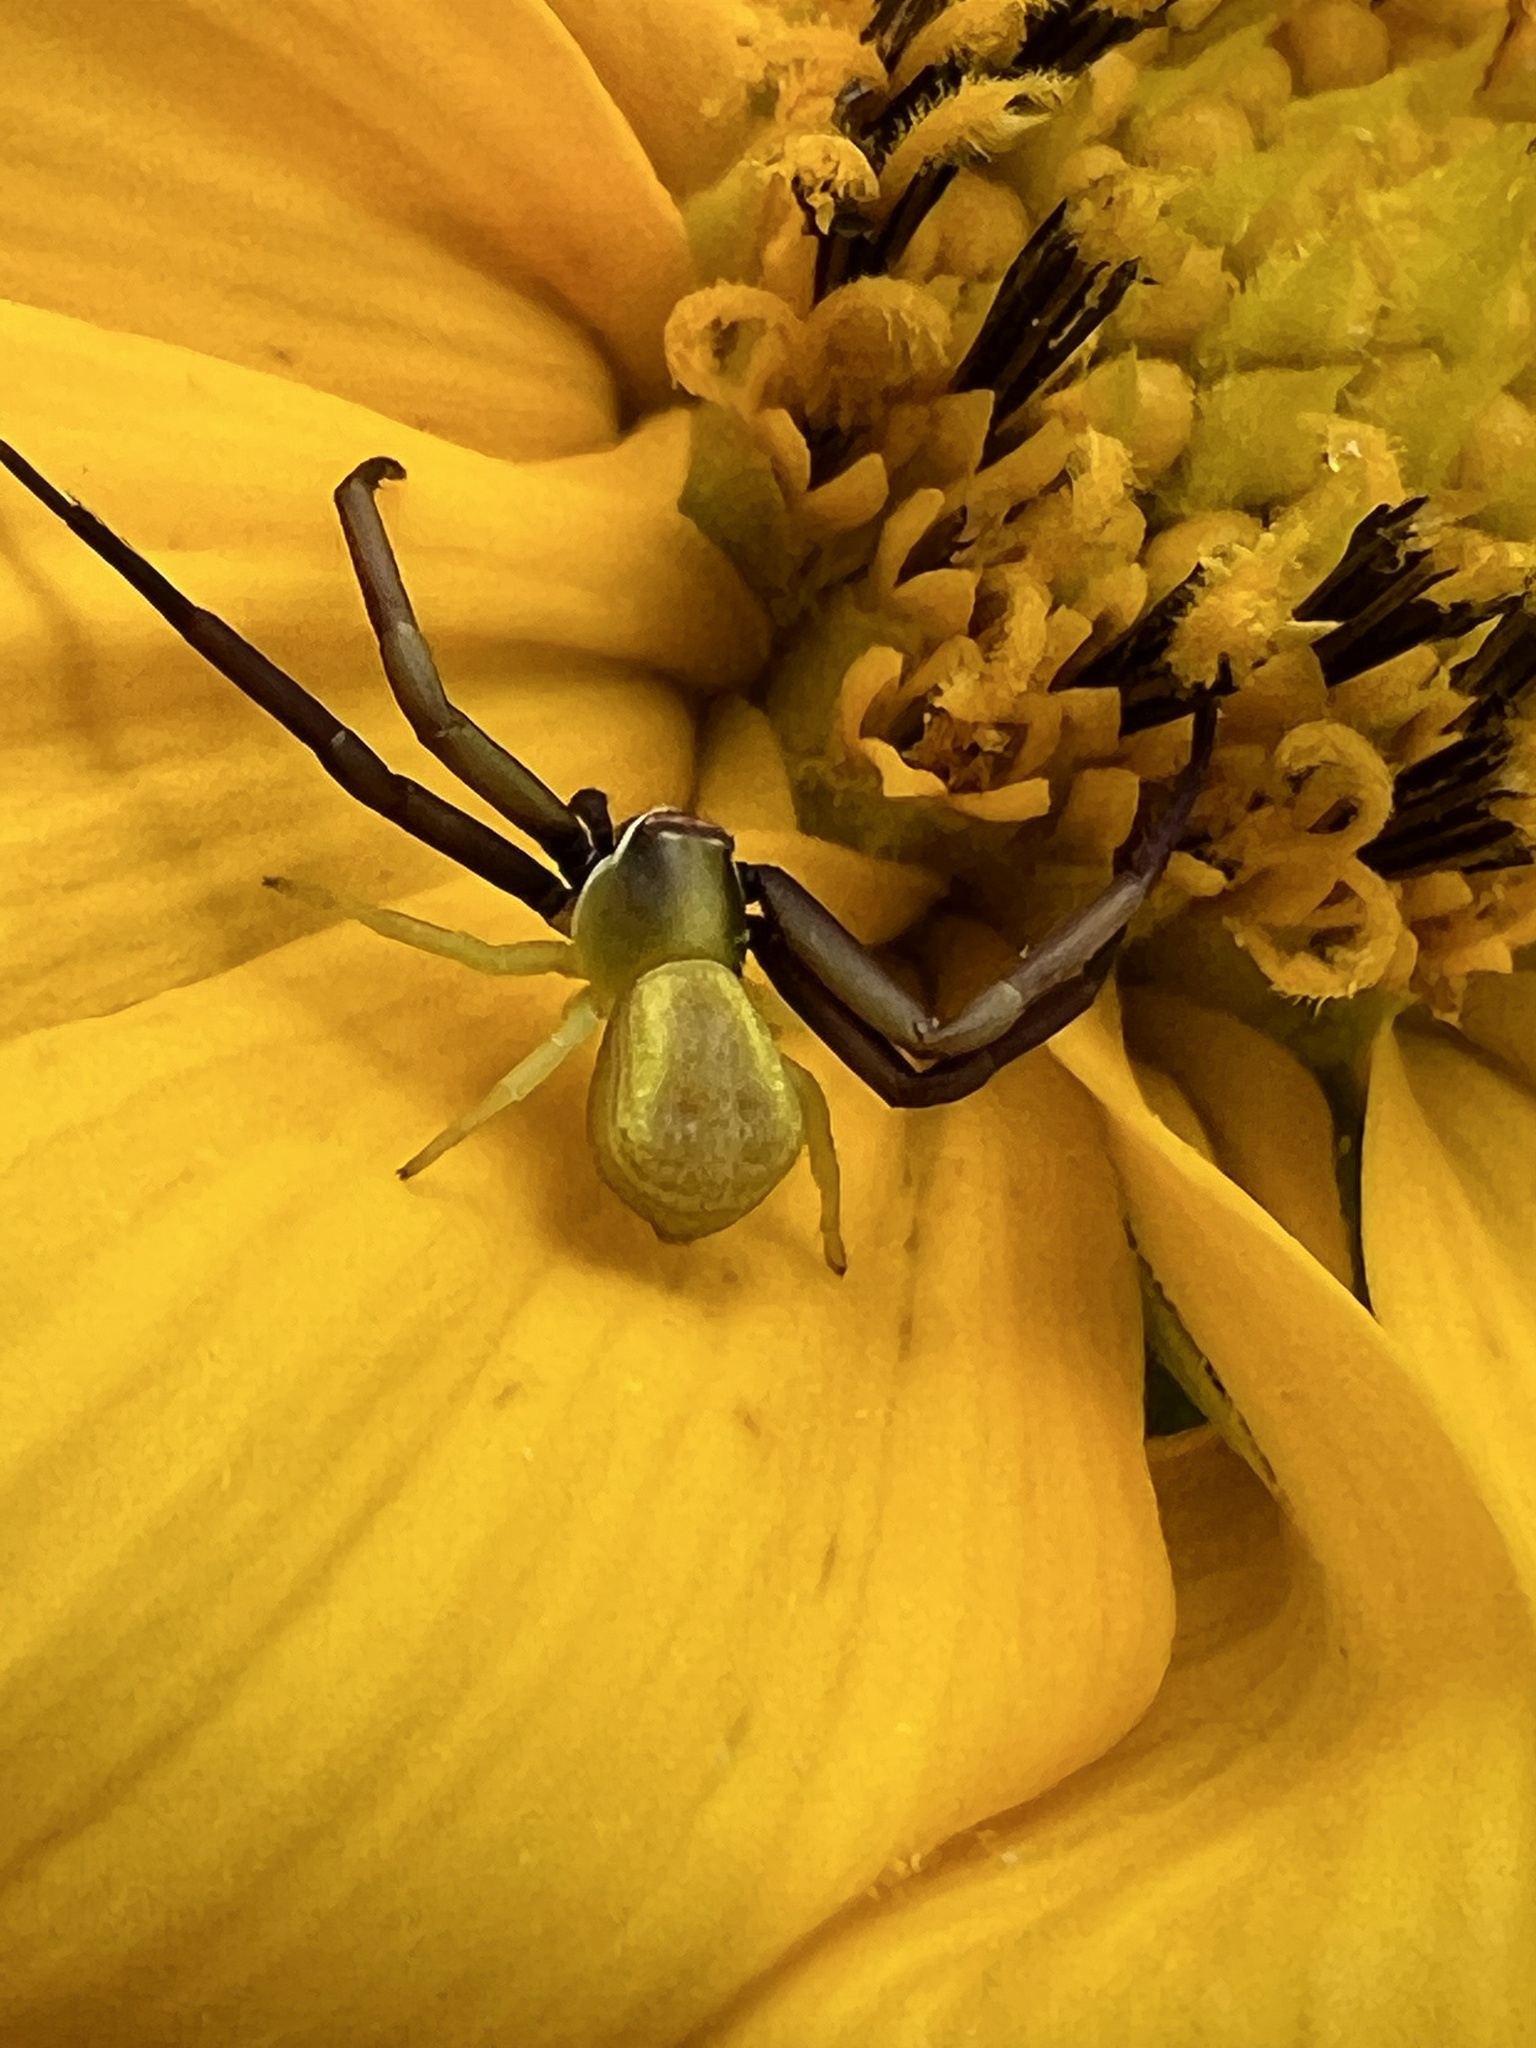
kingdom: Animalia
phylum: Arthropoda
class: Arachnida
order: Araneae
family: Thomisidae
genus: Misumenoides
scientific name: Misumenoides formosipes
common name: White-banded crab spider
